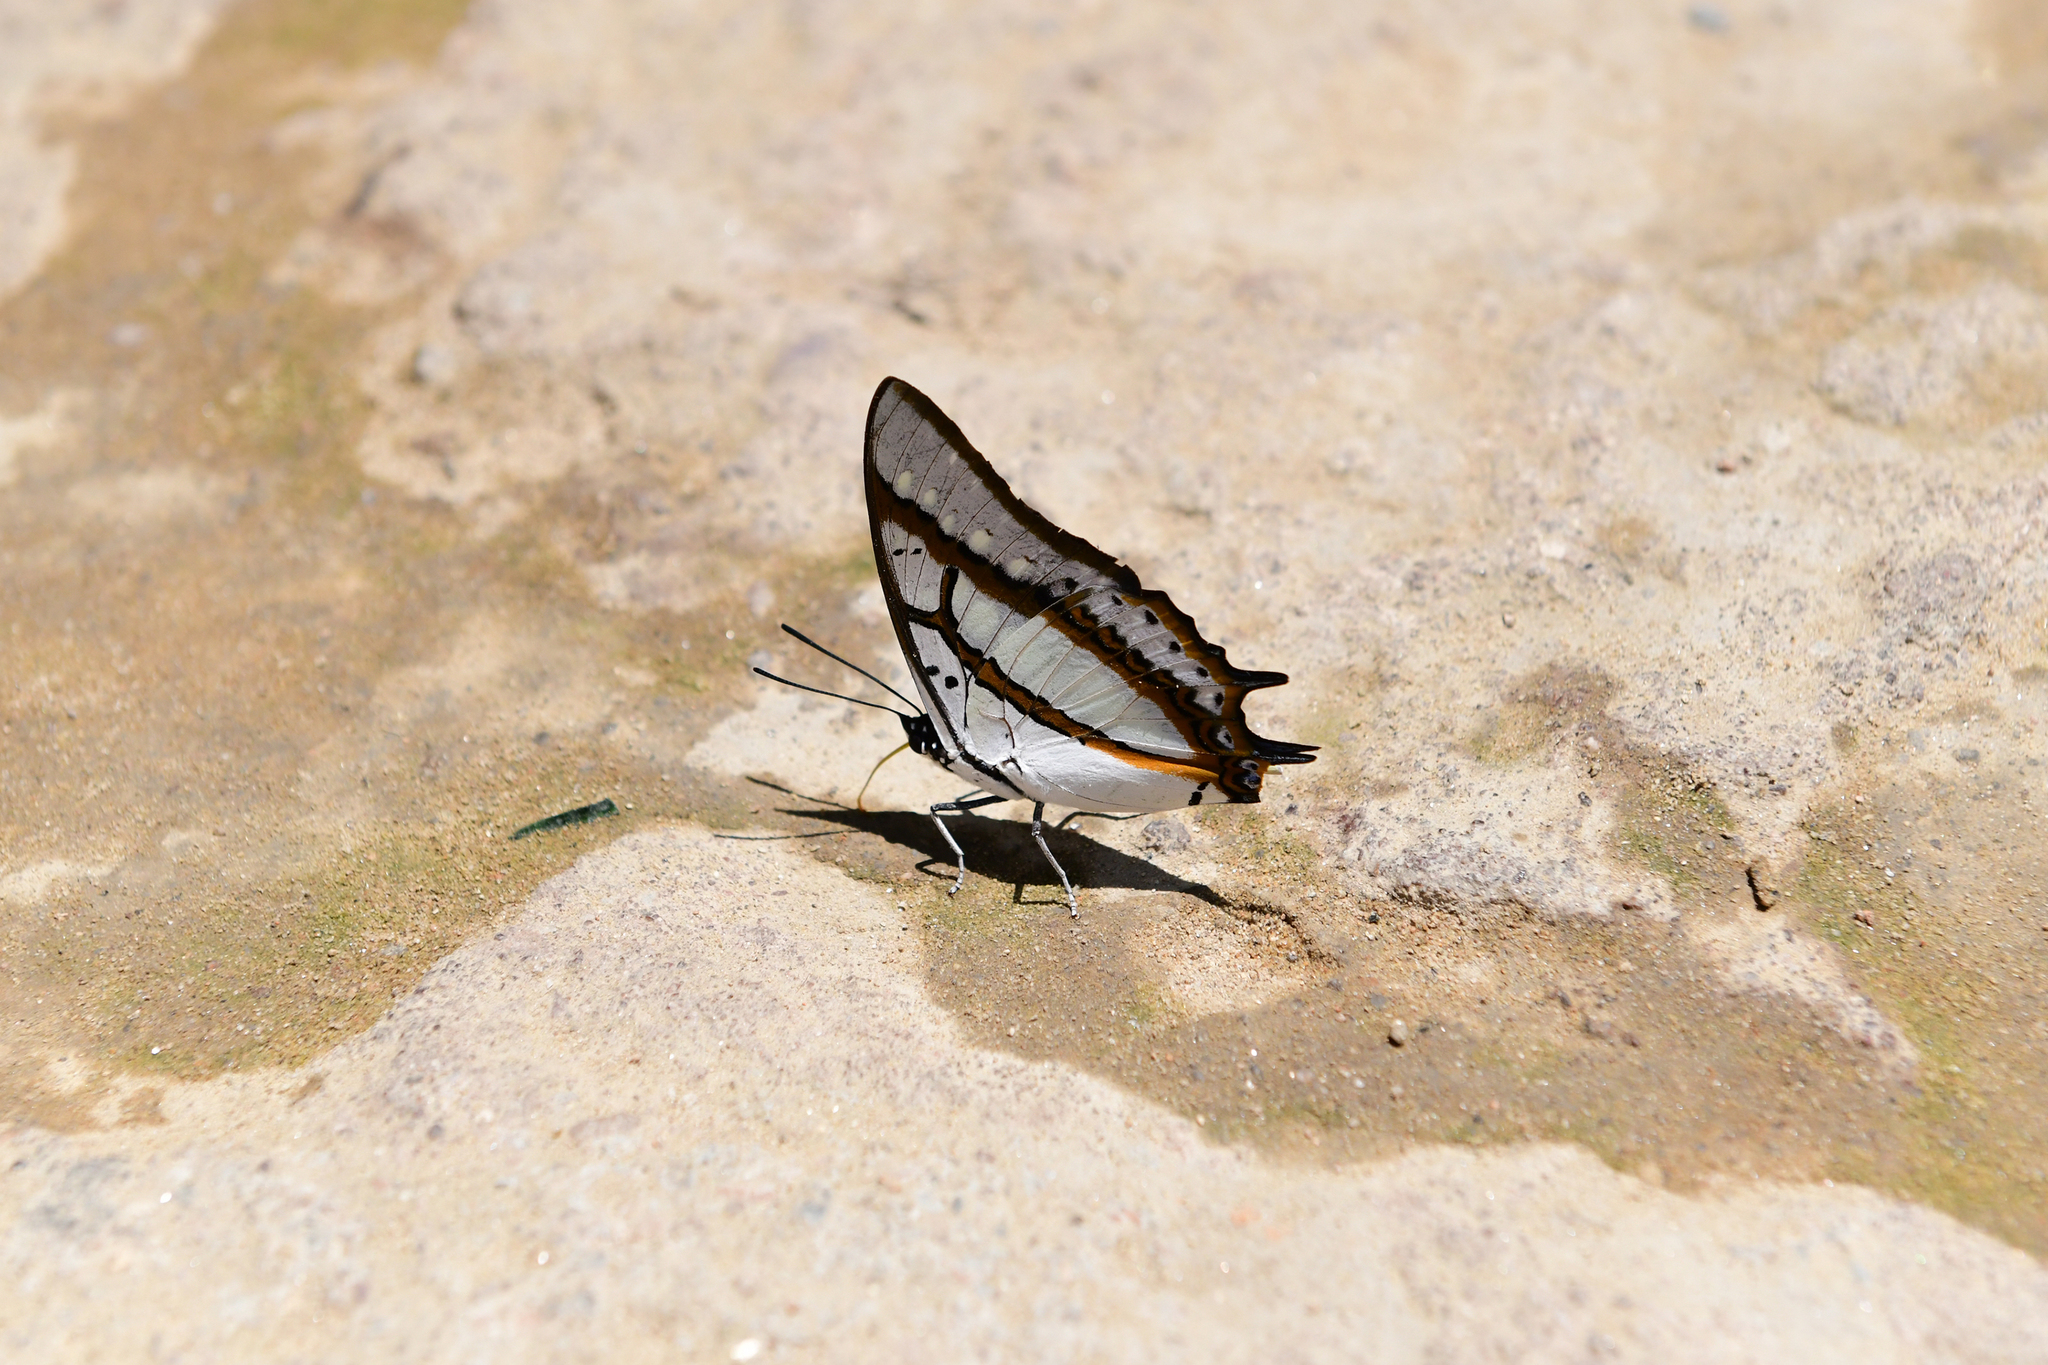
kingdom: Animalia
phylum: Arthropoda
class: Insecta
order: Lepidoptera
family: Nymphalidae
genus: Polyura
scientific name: Polyura eudamippus
